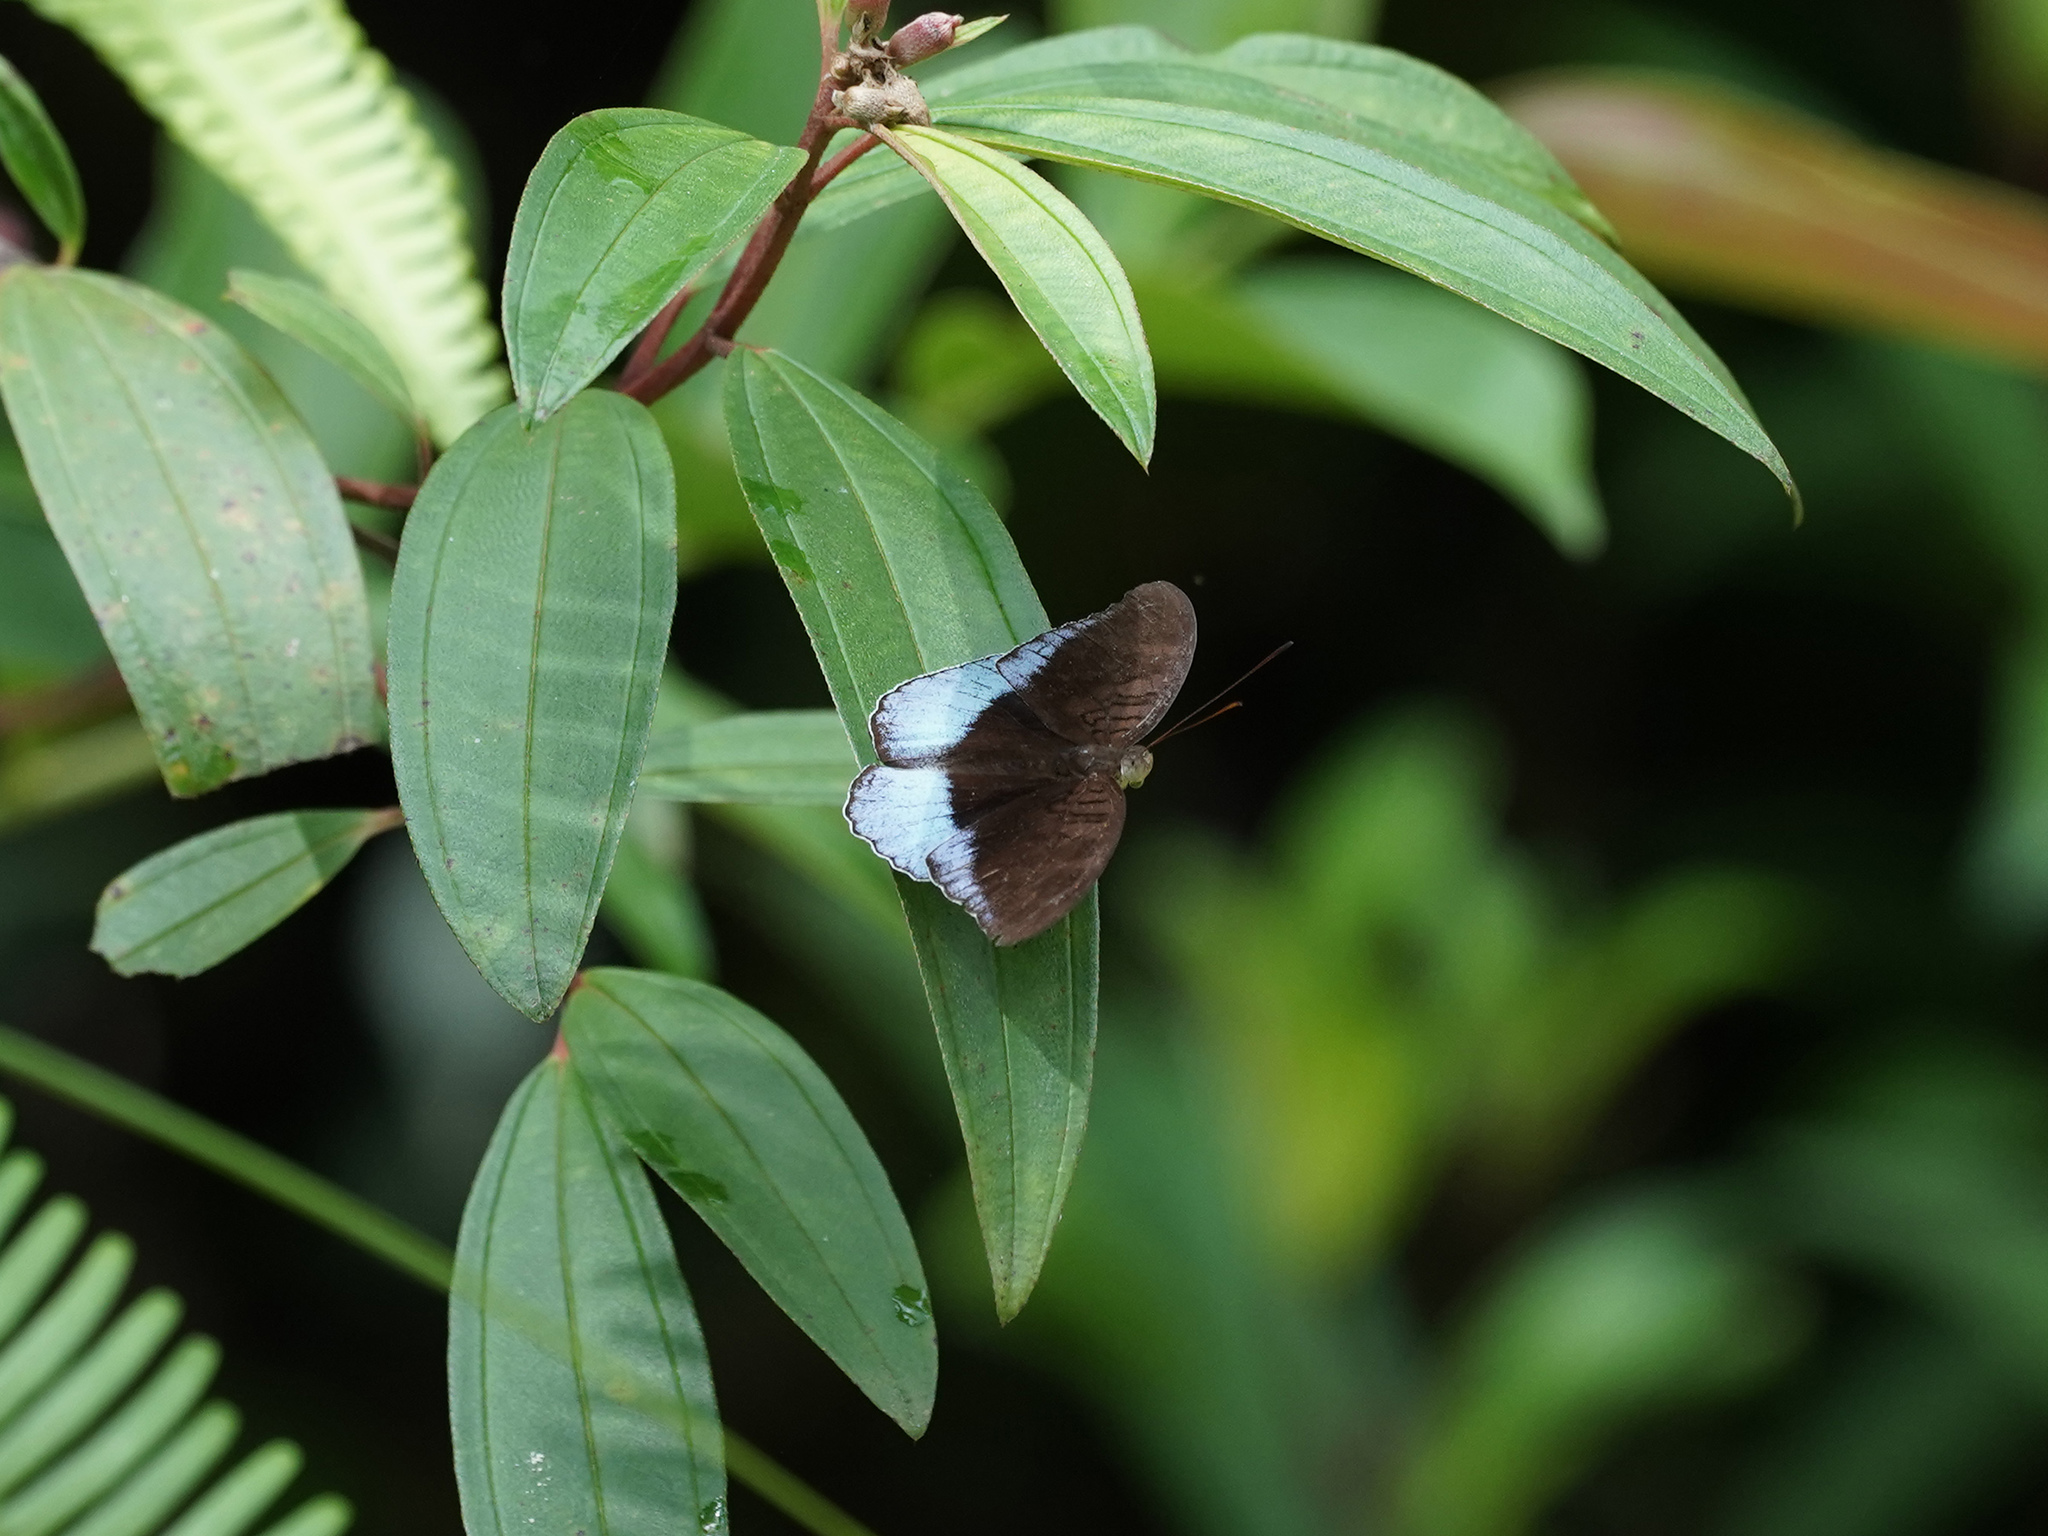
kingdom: Animalia
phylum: Arthropoda
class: Insecta
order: Lepidoptera
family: Nymphalidae
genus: Tanaecia
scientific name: Tanaecia iapis
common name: Horsfield's baron
